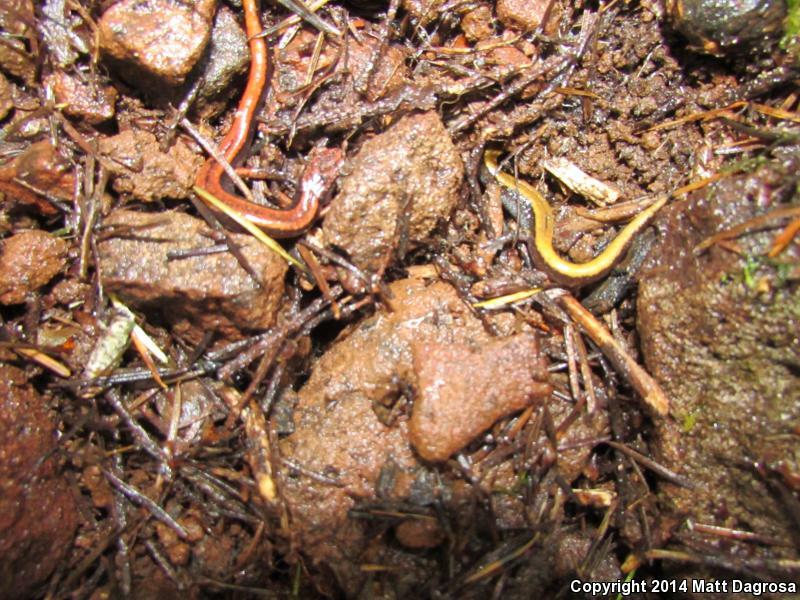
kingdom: Animalia
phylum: Chordata
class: Amphibia
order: Caudata
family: Plethodontidae
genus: Plethodon
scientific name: Plethodon vehiculum
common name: Western red-backed salamander
